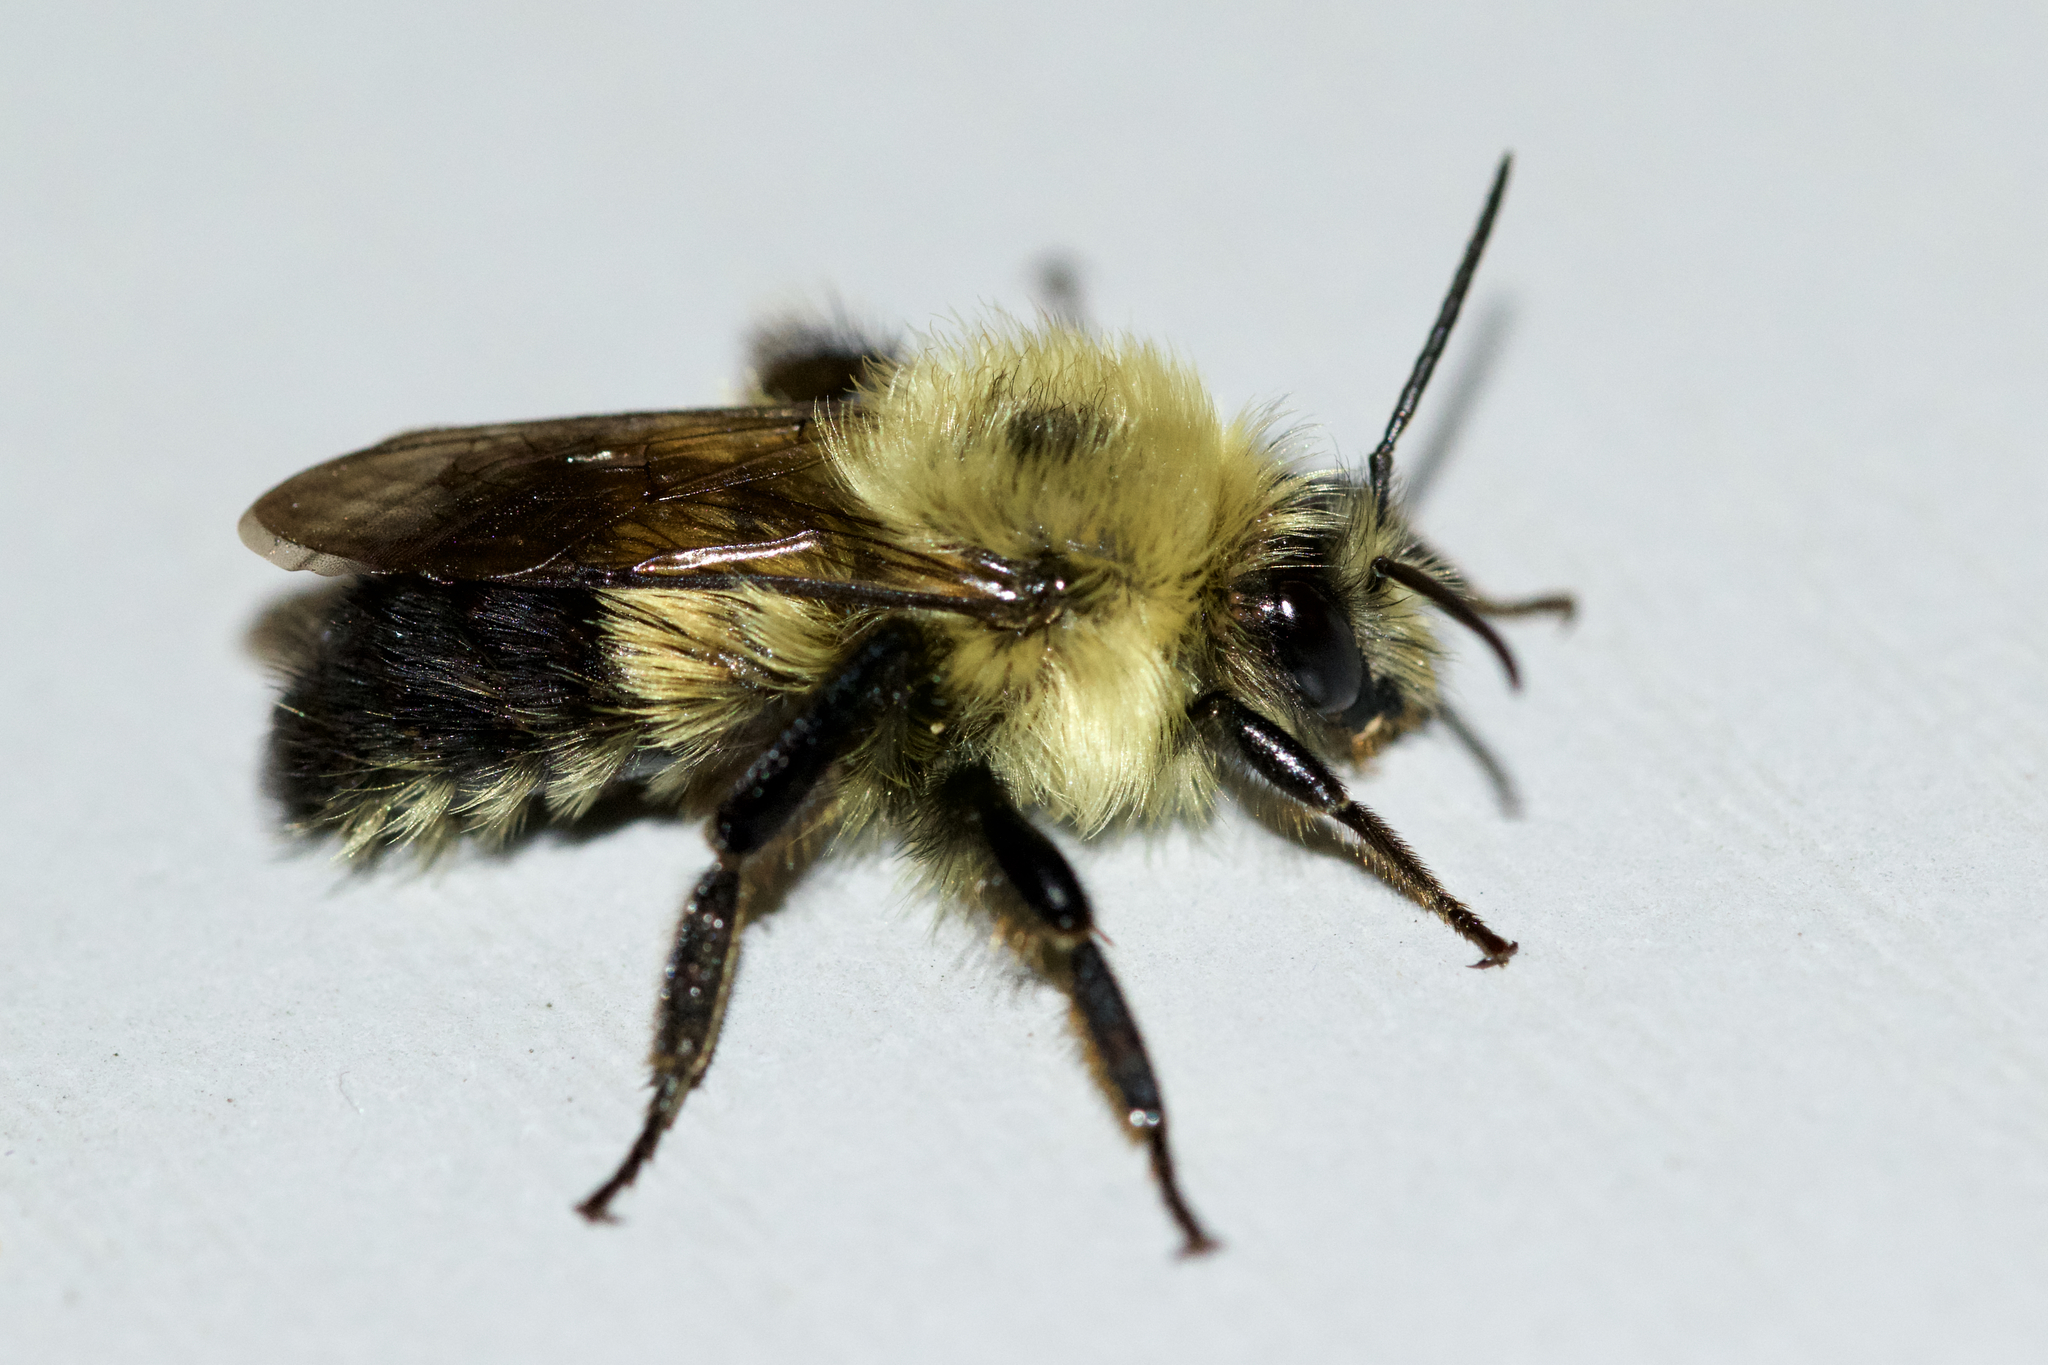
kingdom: Animalia
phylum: Arthropoda
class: Insecta
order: Hymenoptera
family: Apidae
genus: Pyrobombus
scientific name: Pyrobombus
